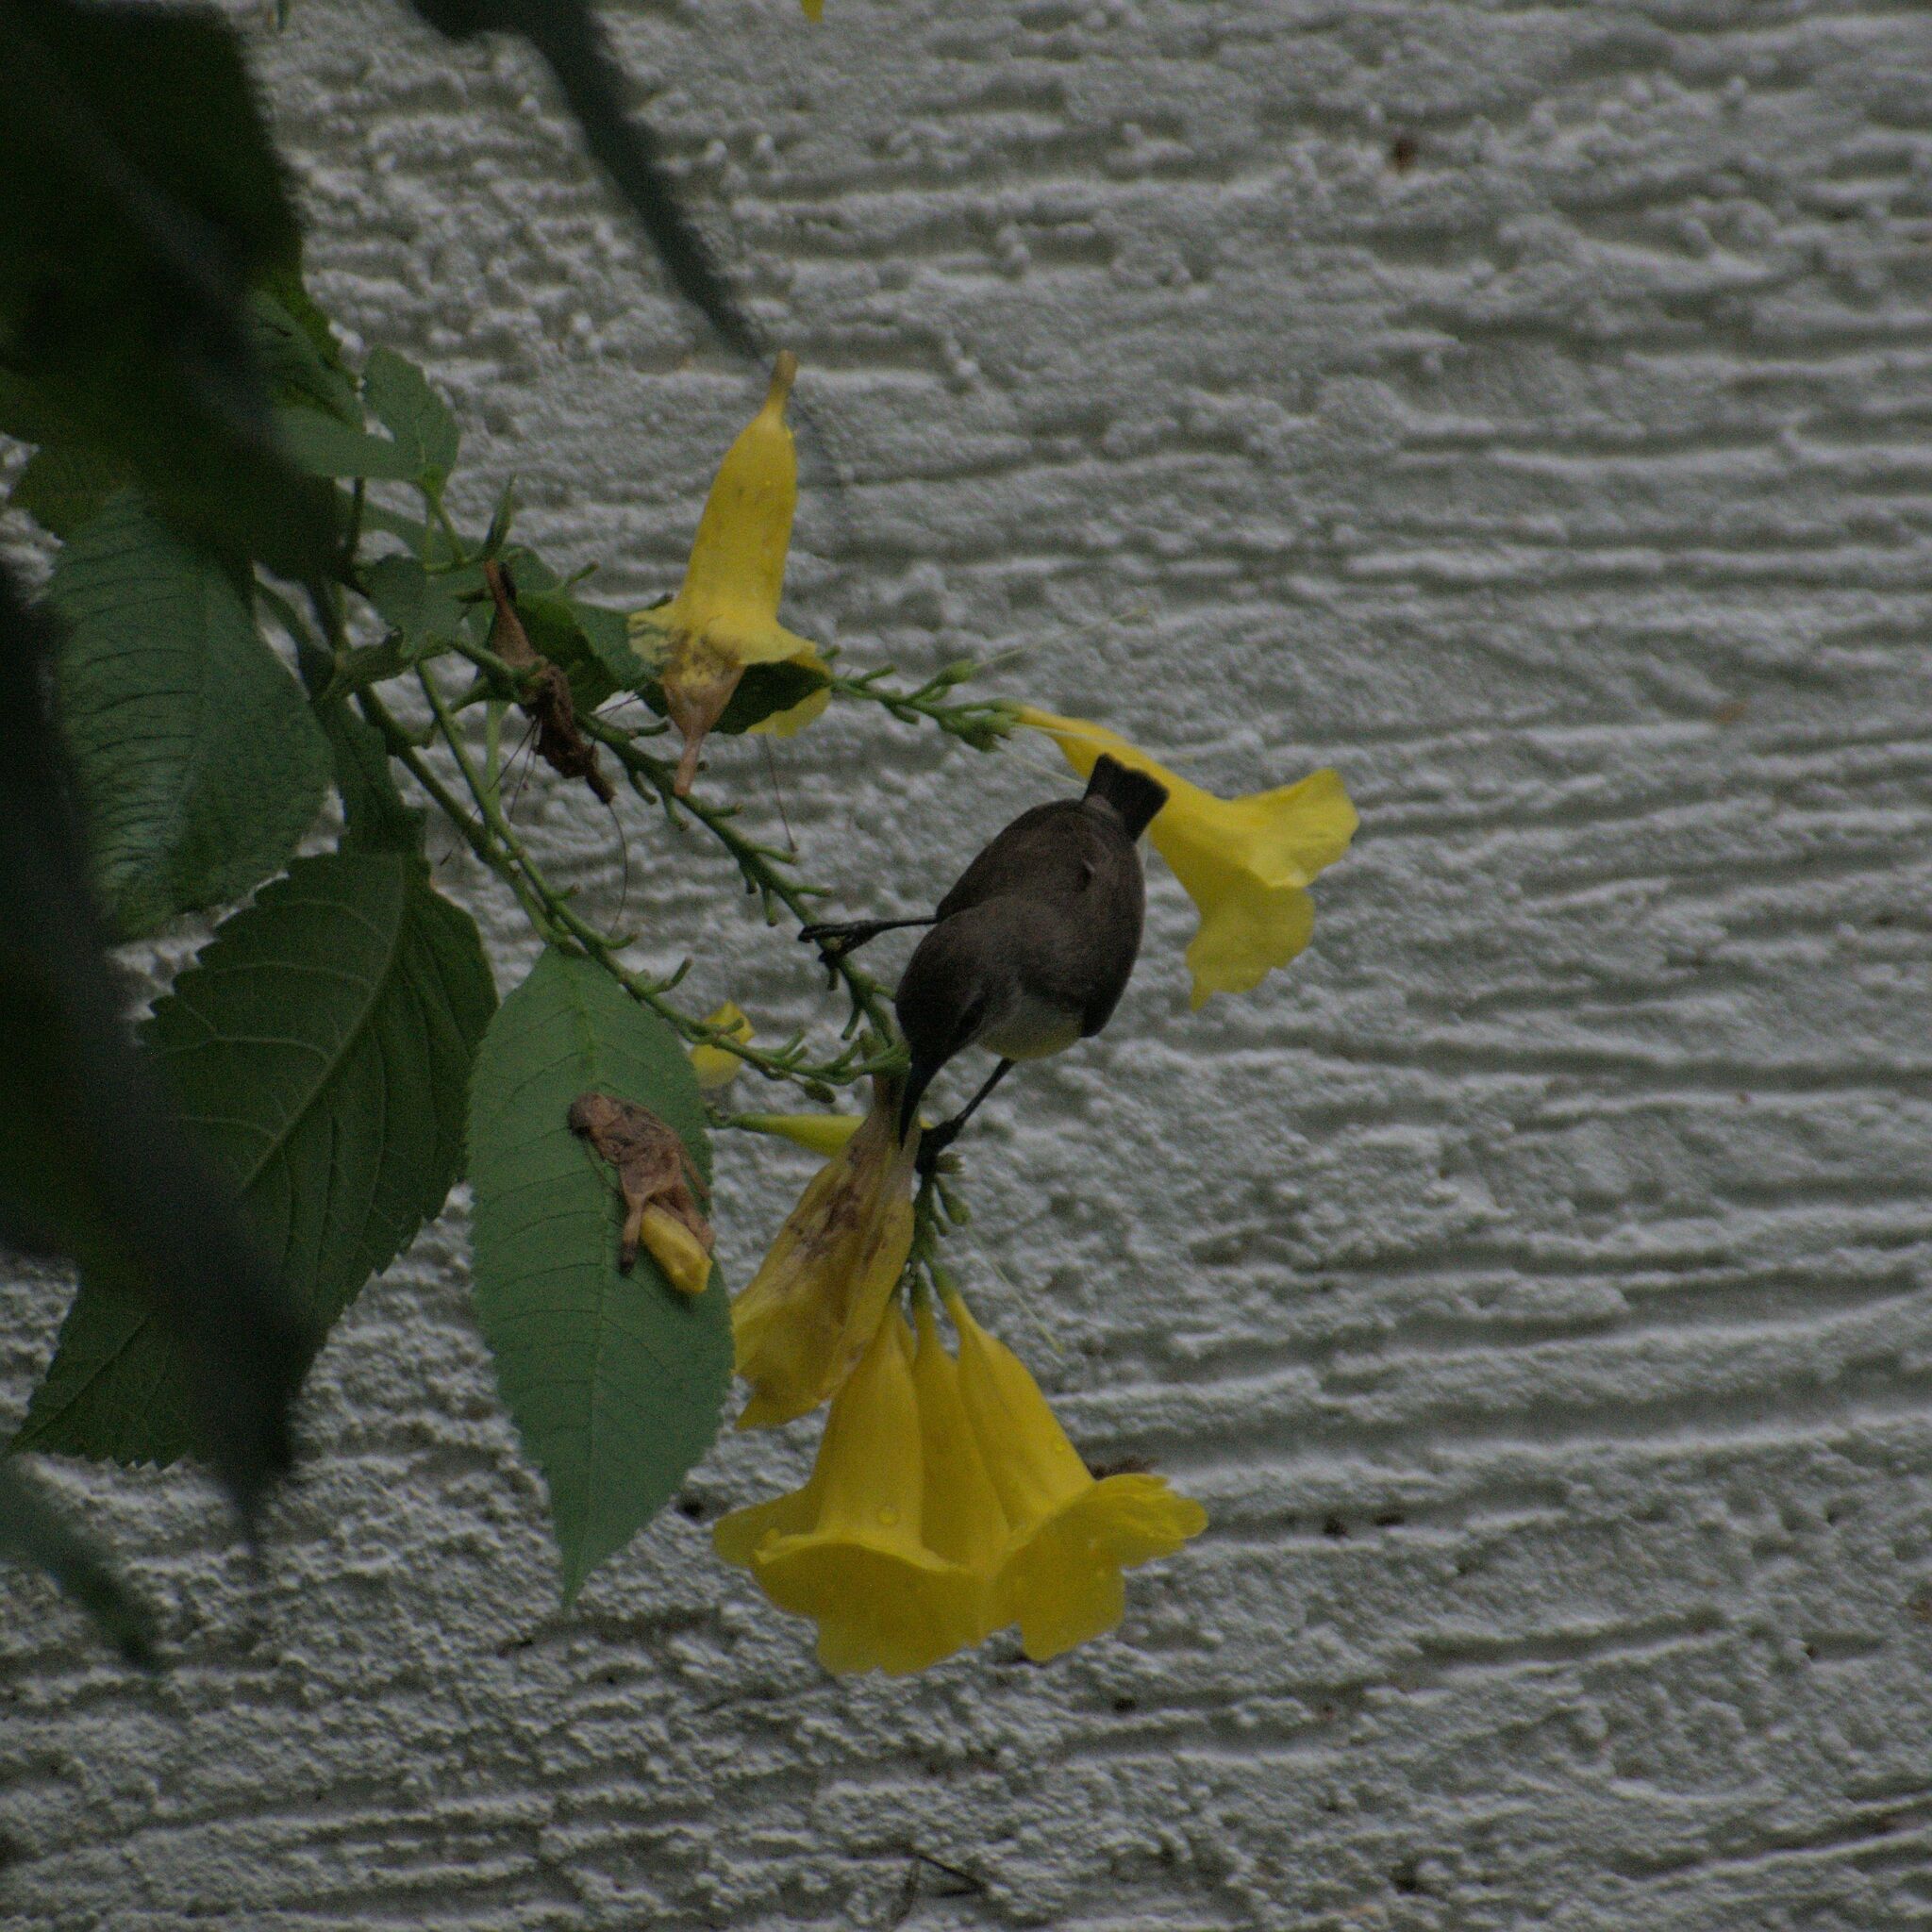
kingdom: Animalia
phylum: Chordata
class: Aves
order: Passeriformes
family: Nectariniidae
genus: Leptocoma
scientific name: Leptocoma zeylonica
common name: Purple-rumped sunbird
